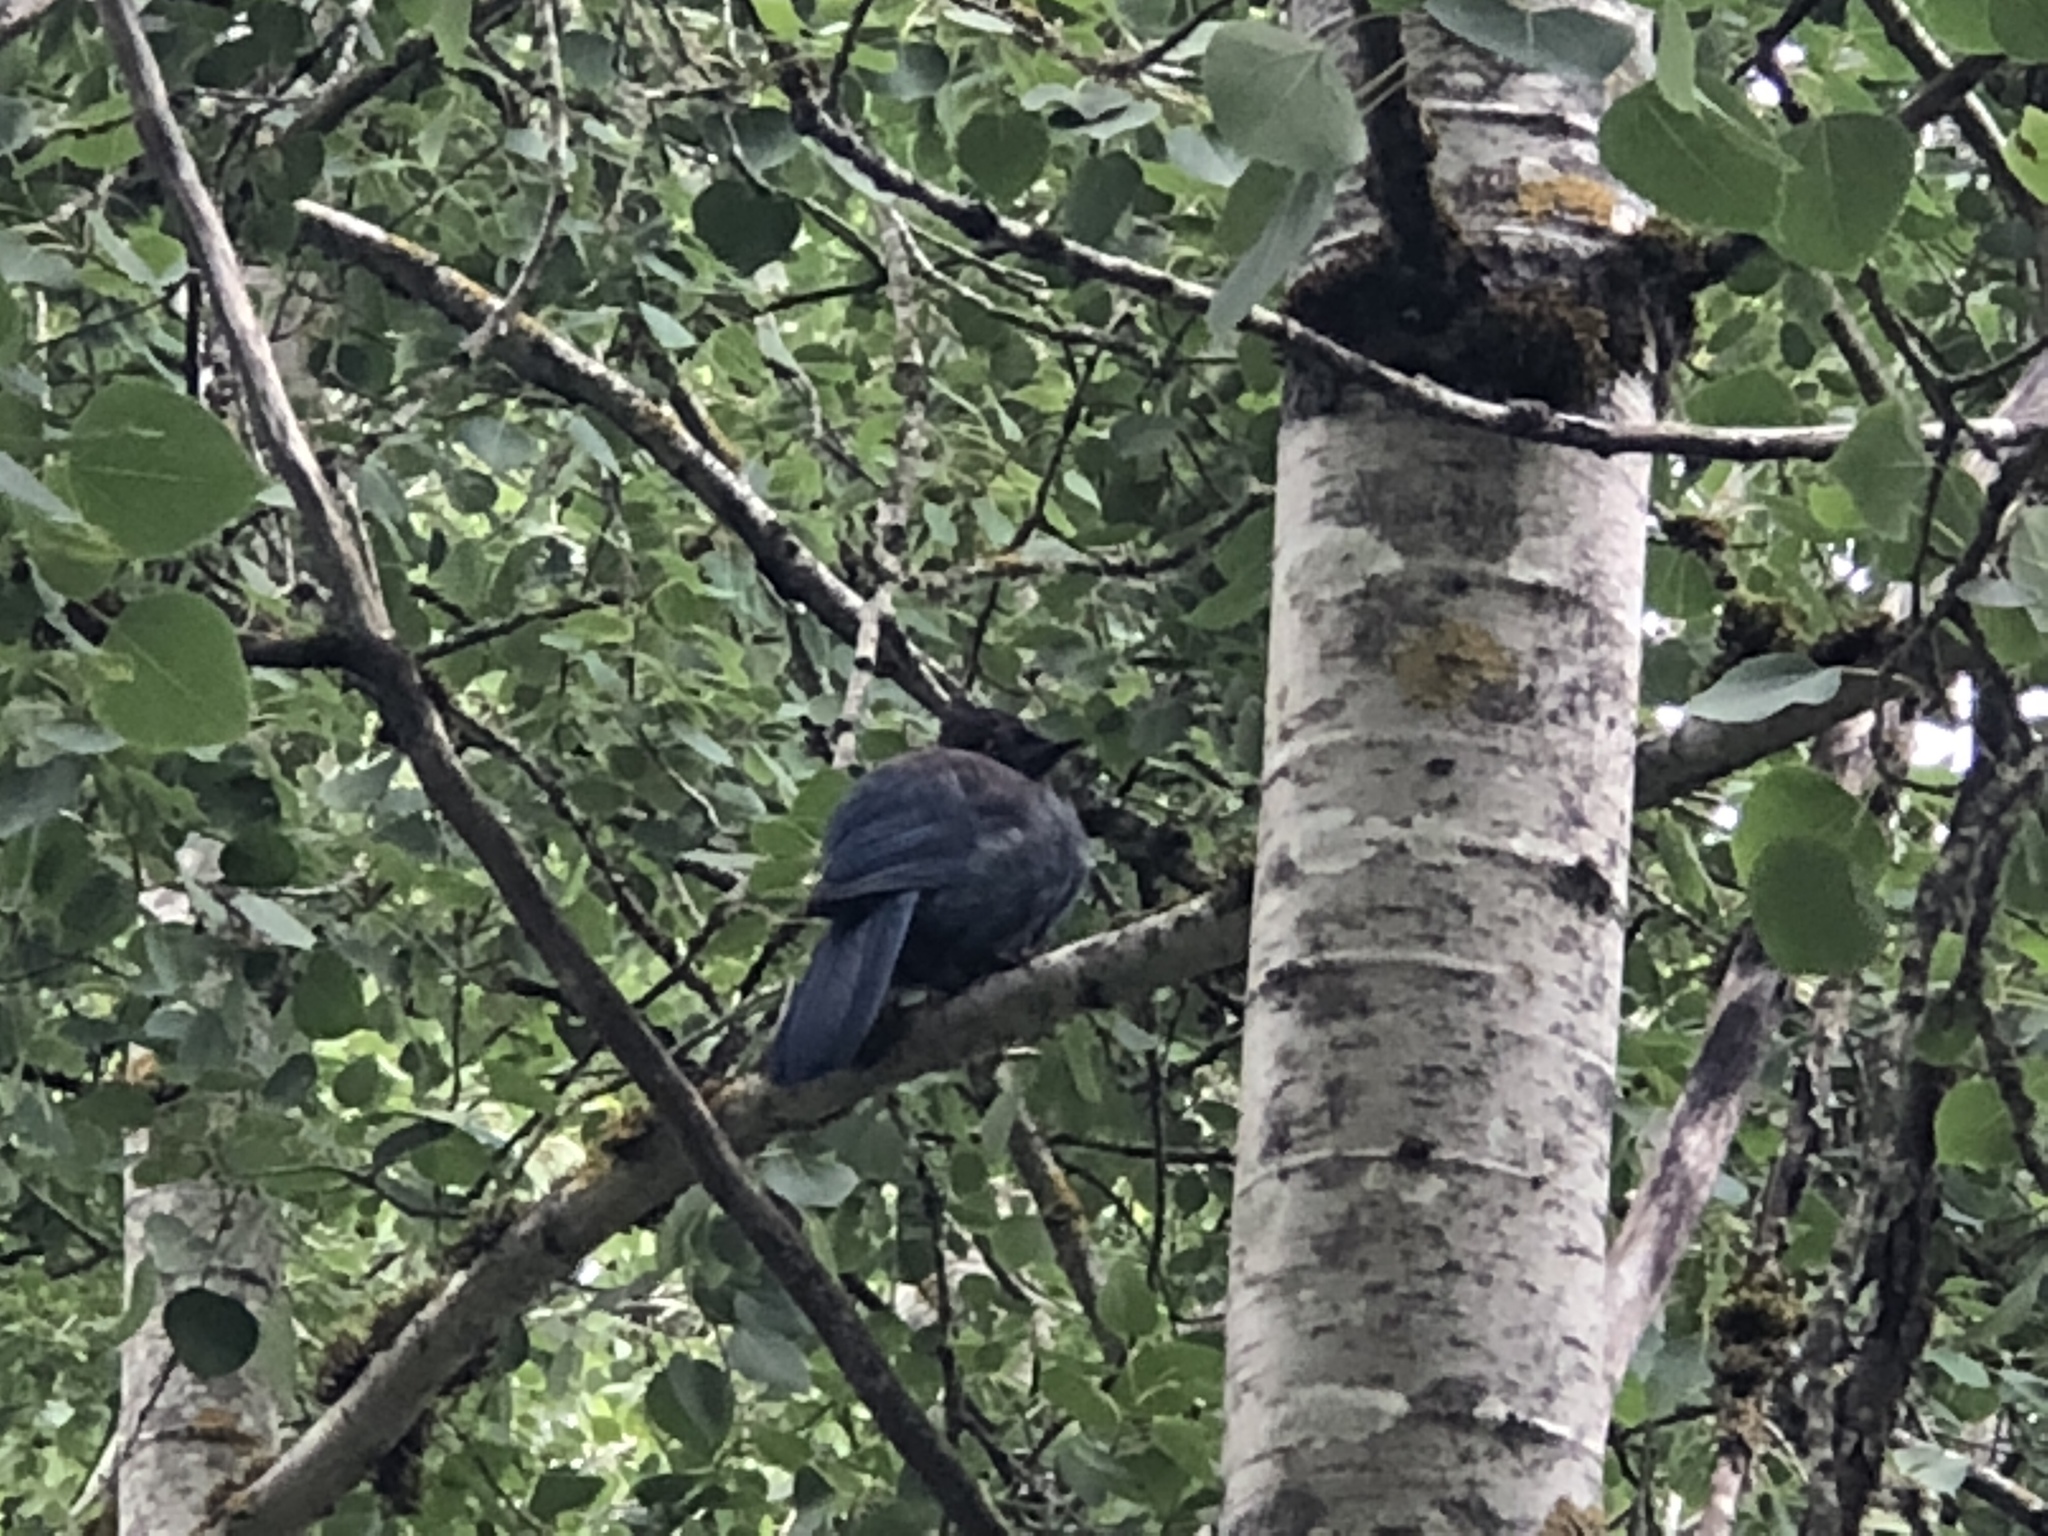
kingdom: Animalia
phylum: Chordata
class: Aves
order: Passeriformes
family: Corvidae
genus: Cyanocitta
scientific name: Cyanocitta stelleri
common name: Steller's jay
